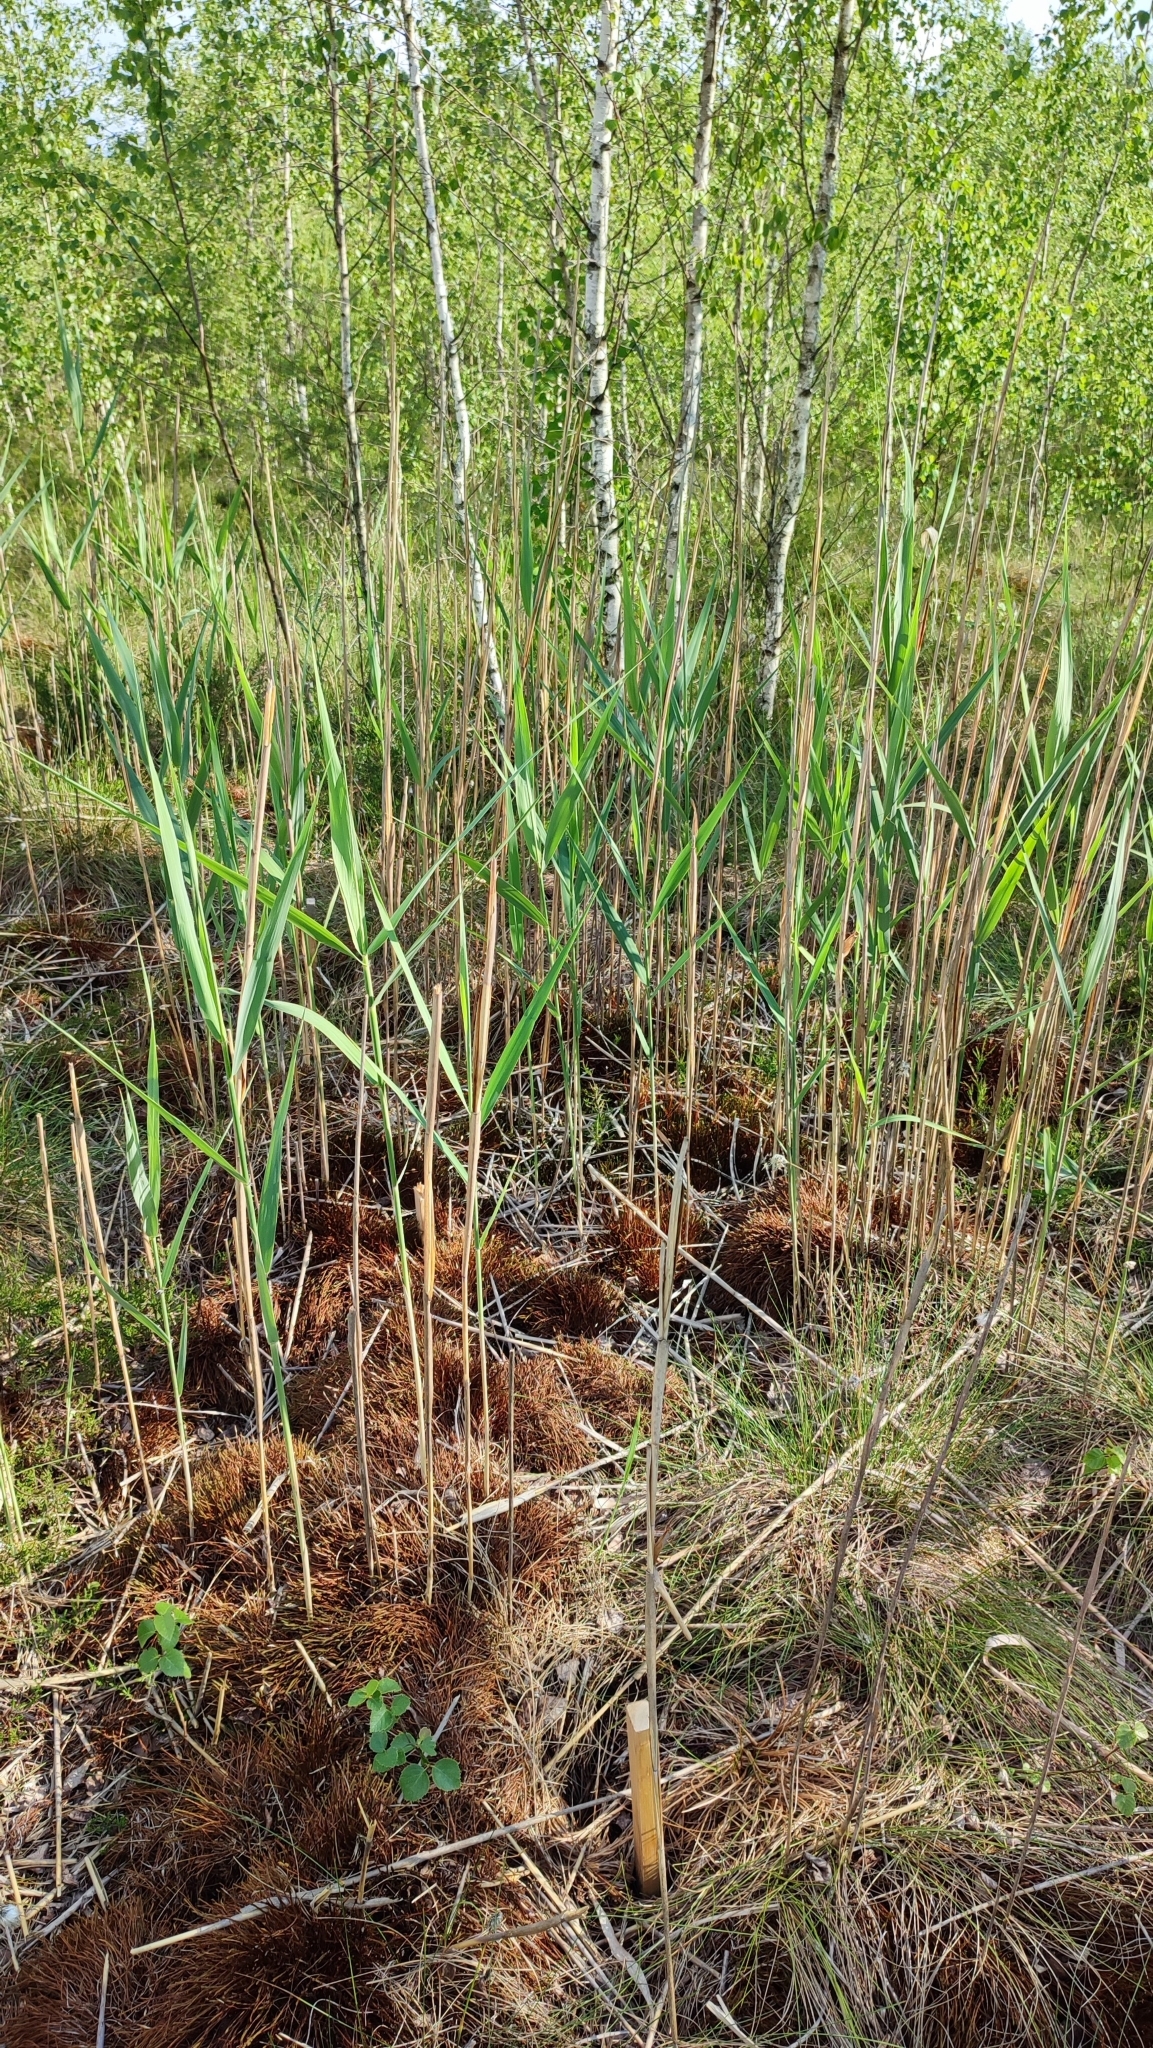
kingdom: Plantae
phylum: Tracheophyta
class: Liliopsida
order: Poales
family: Poaceae
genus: Phragmites
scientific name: Phragmites australis
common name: Common reed
